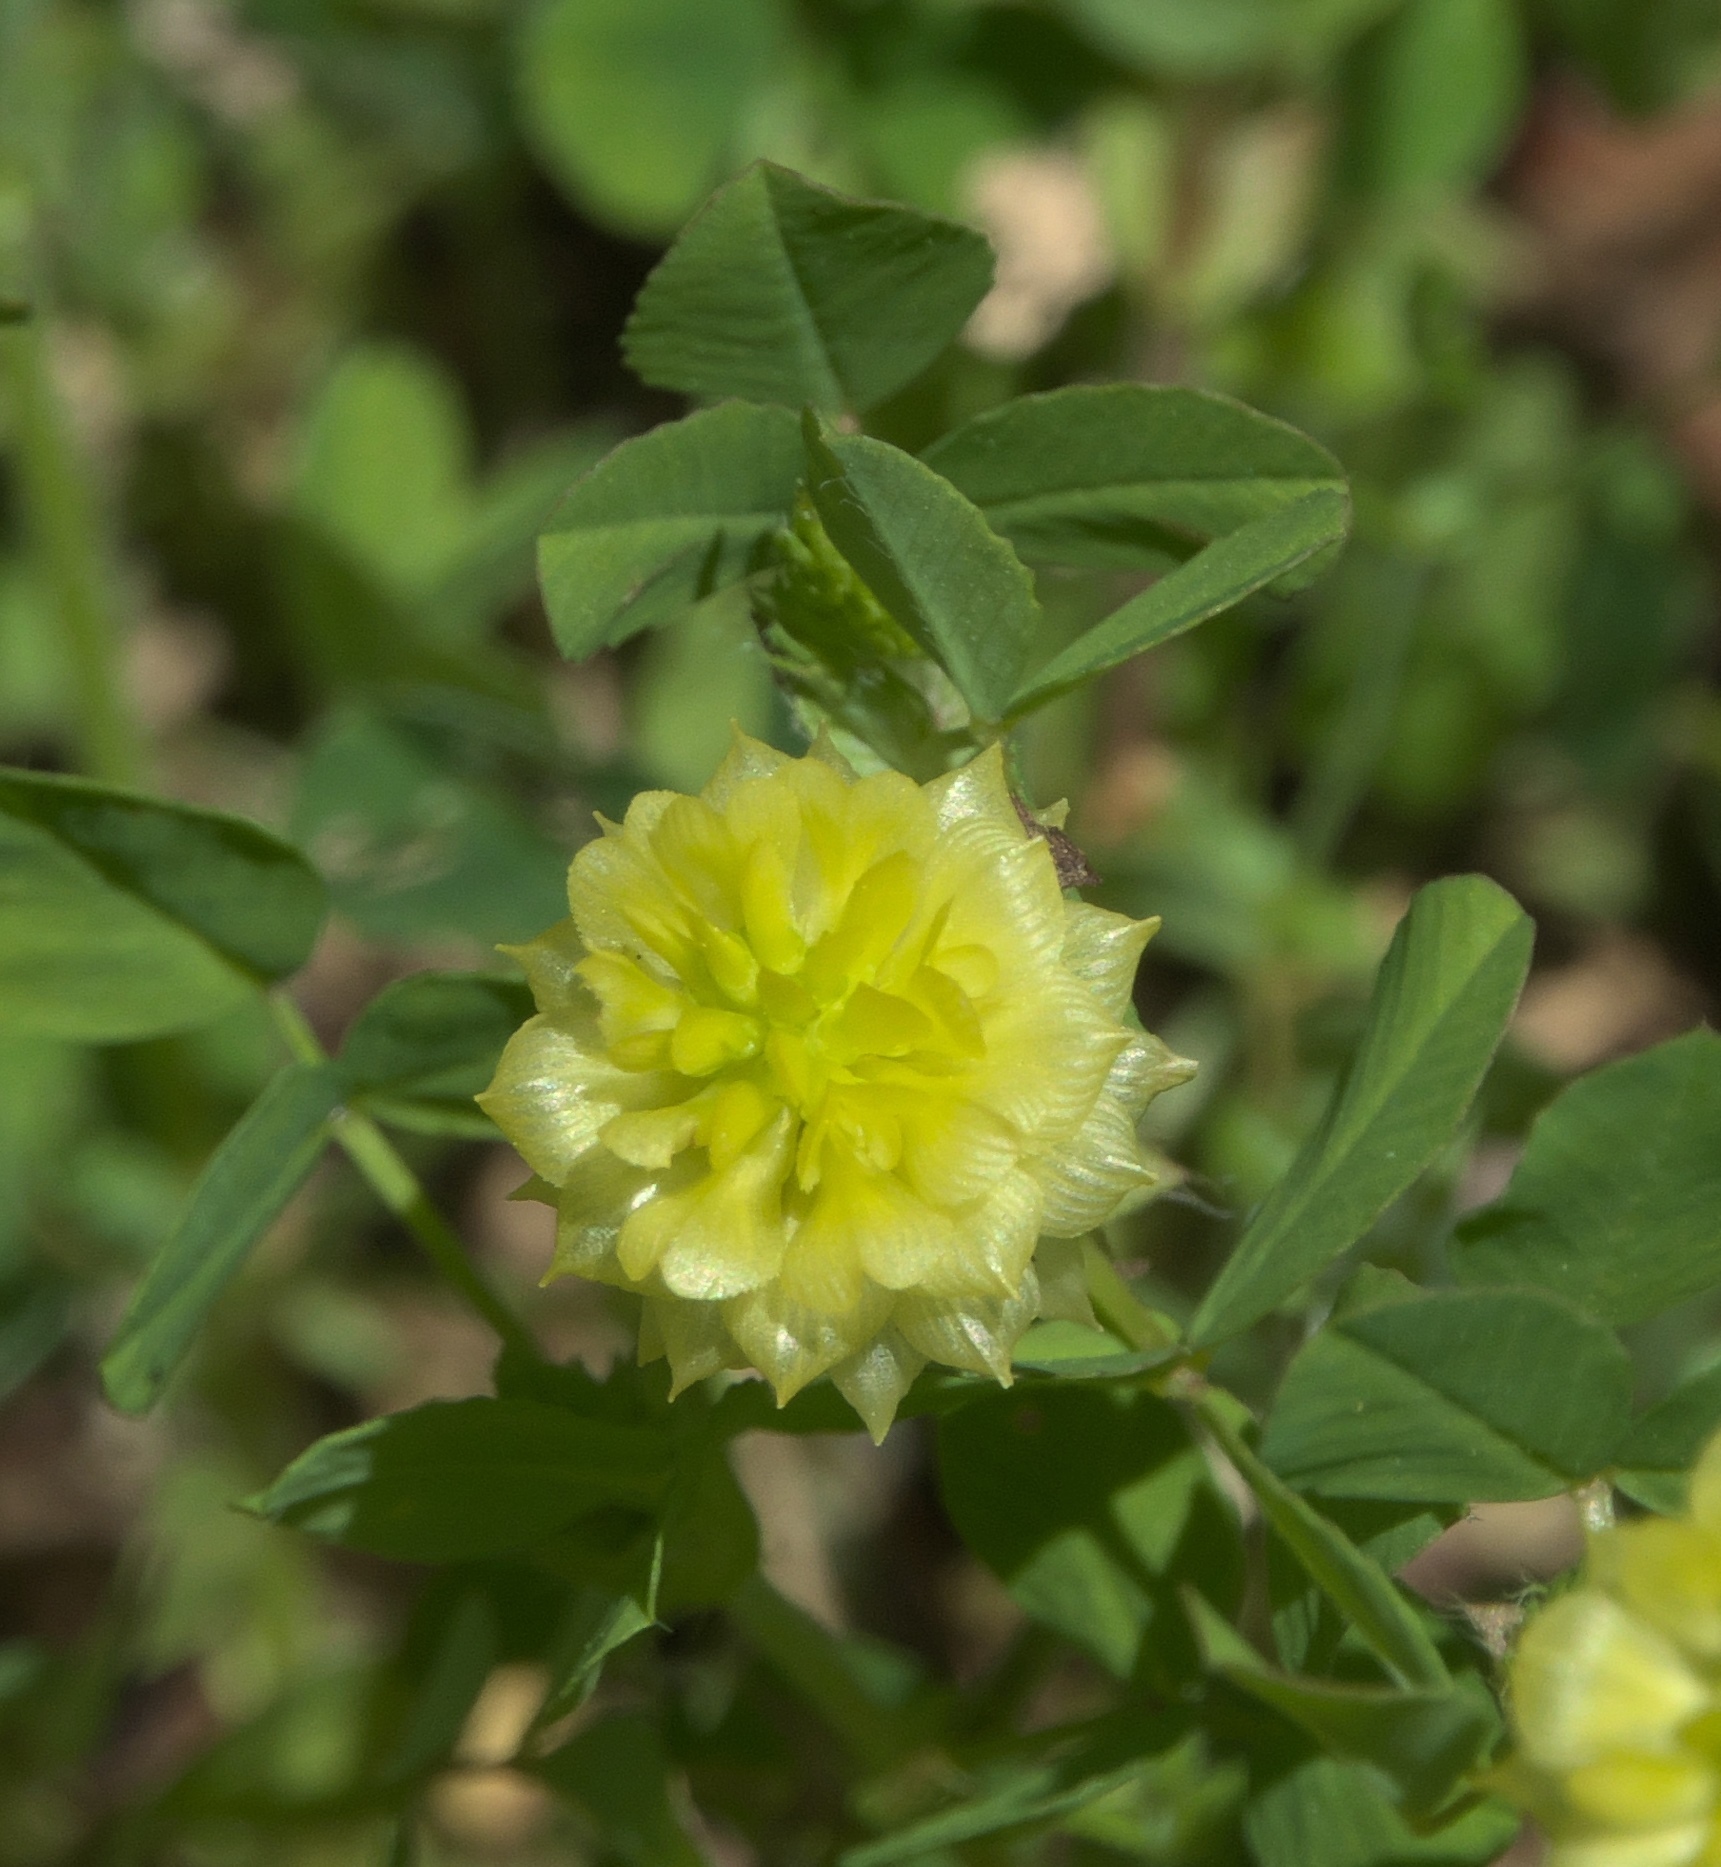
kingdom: Plantae
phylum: Tracheophyta
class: Magnoliopsida
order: Fabales
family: Fabaceae
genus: Trifolium
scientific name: Trifolium campestre
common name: Field clover
